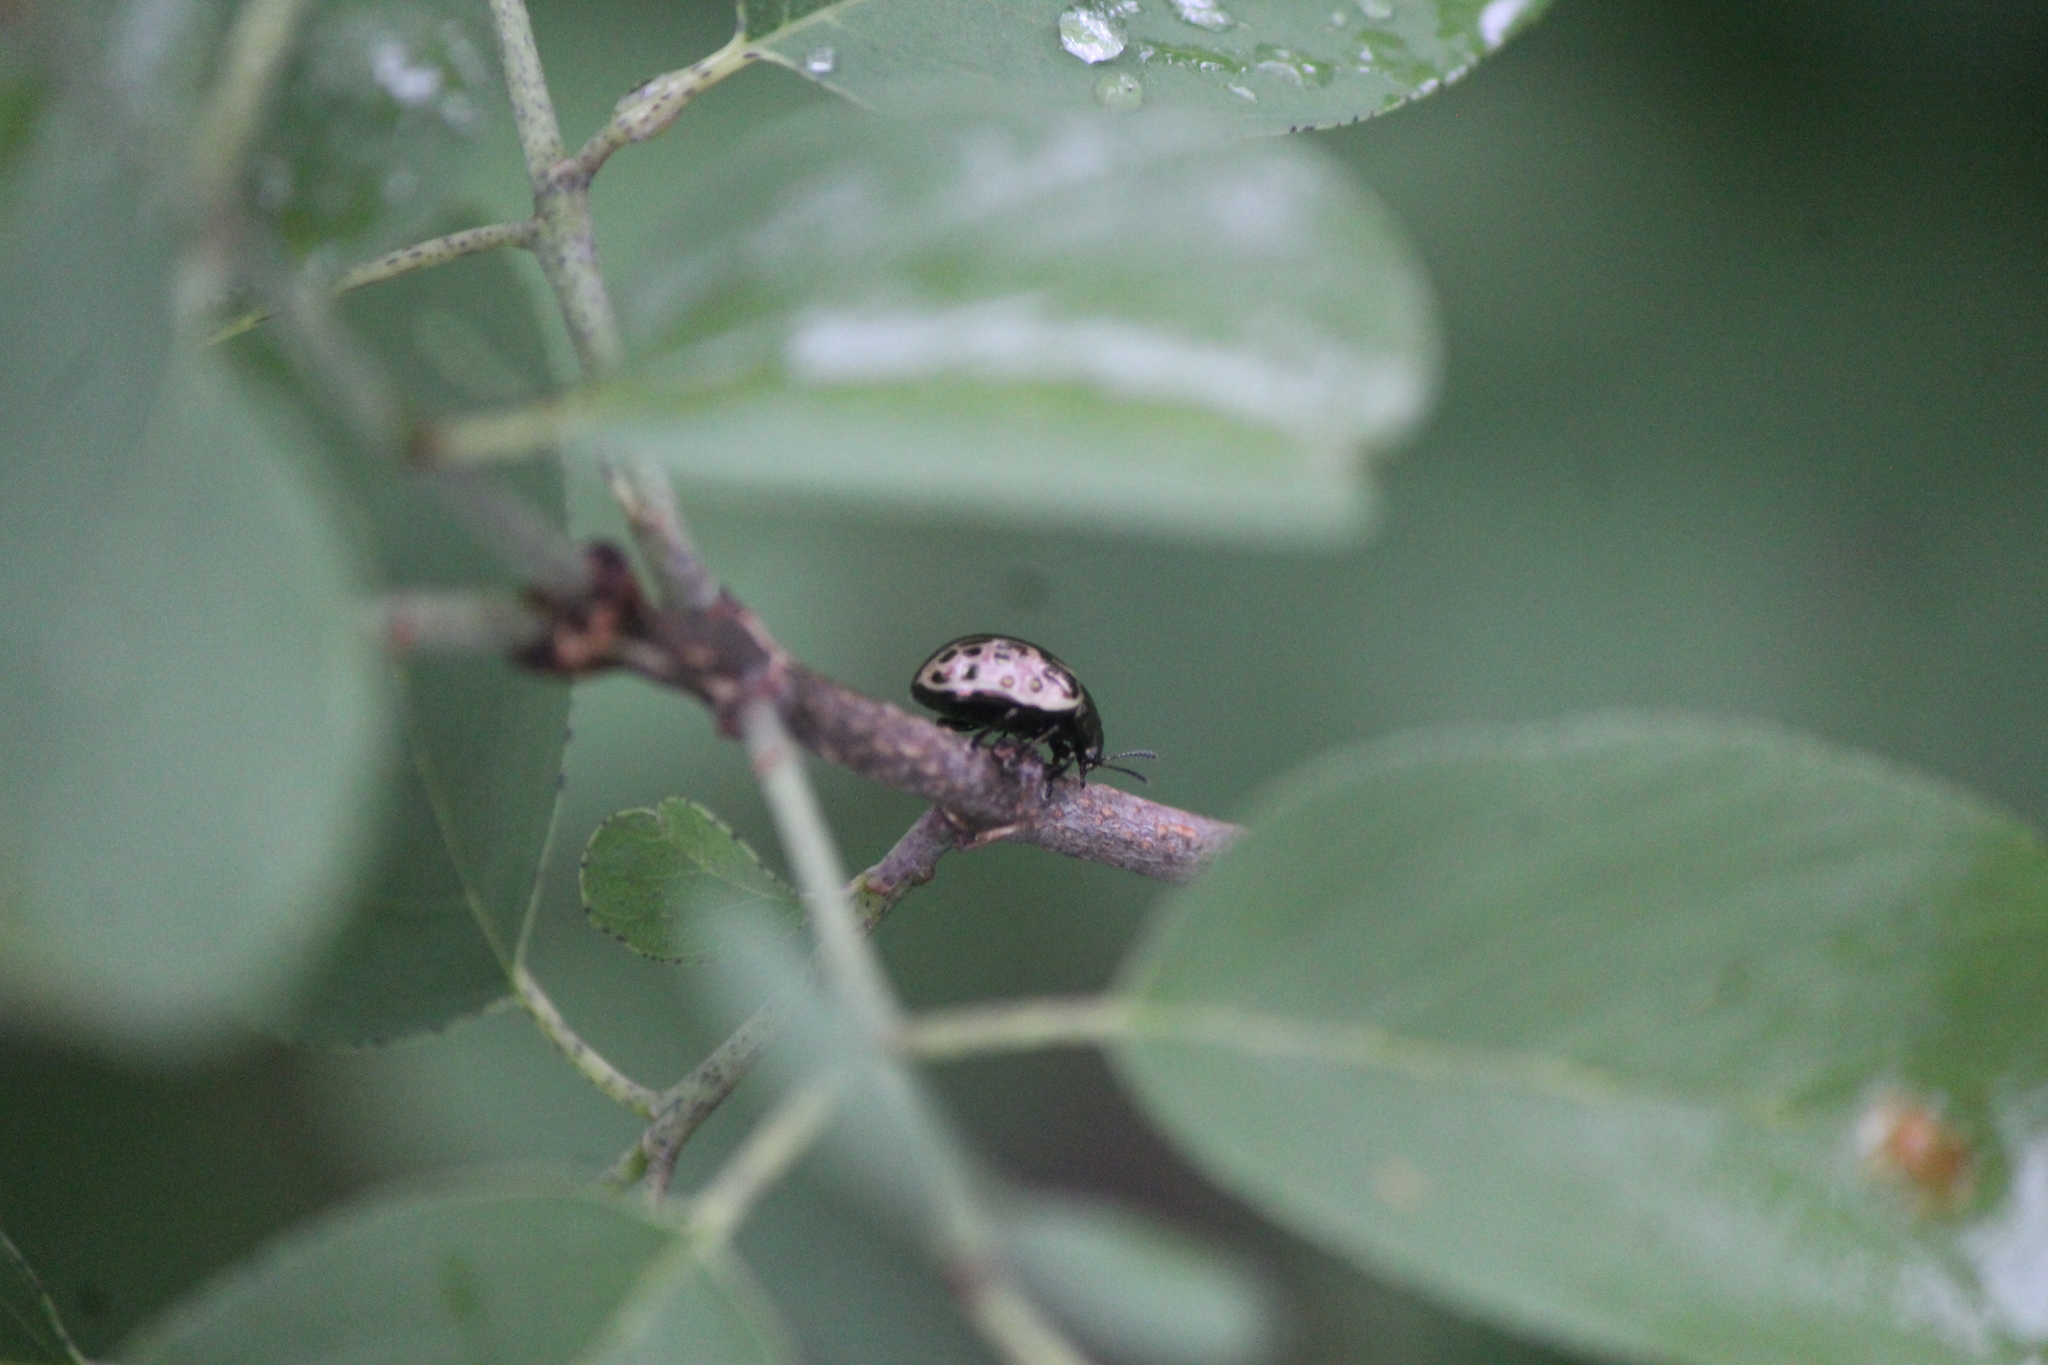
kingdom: Animalia
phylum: Arthropoda
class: Insecta
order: Coleoptera
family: Chrysomelidae
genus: Calligrapha
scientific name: Calligrapha
